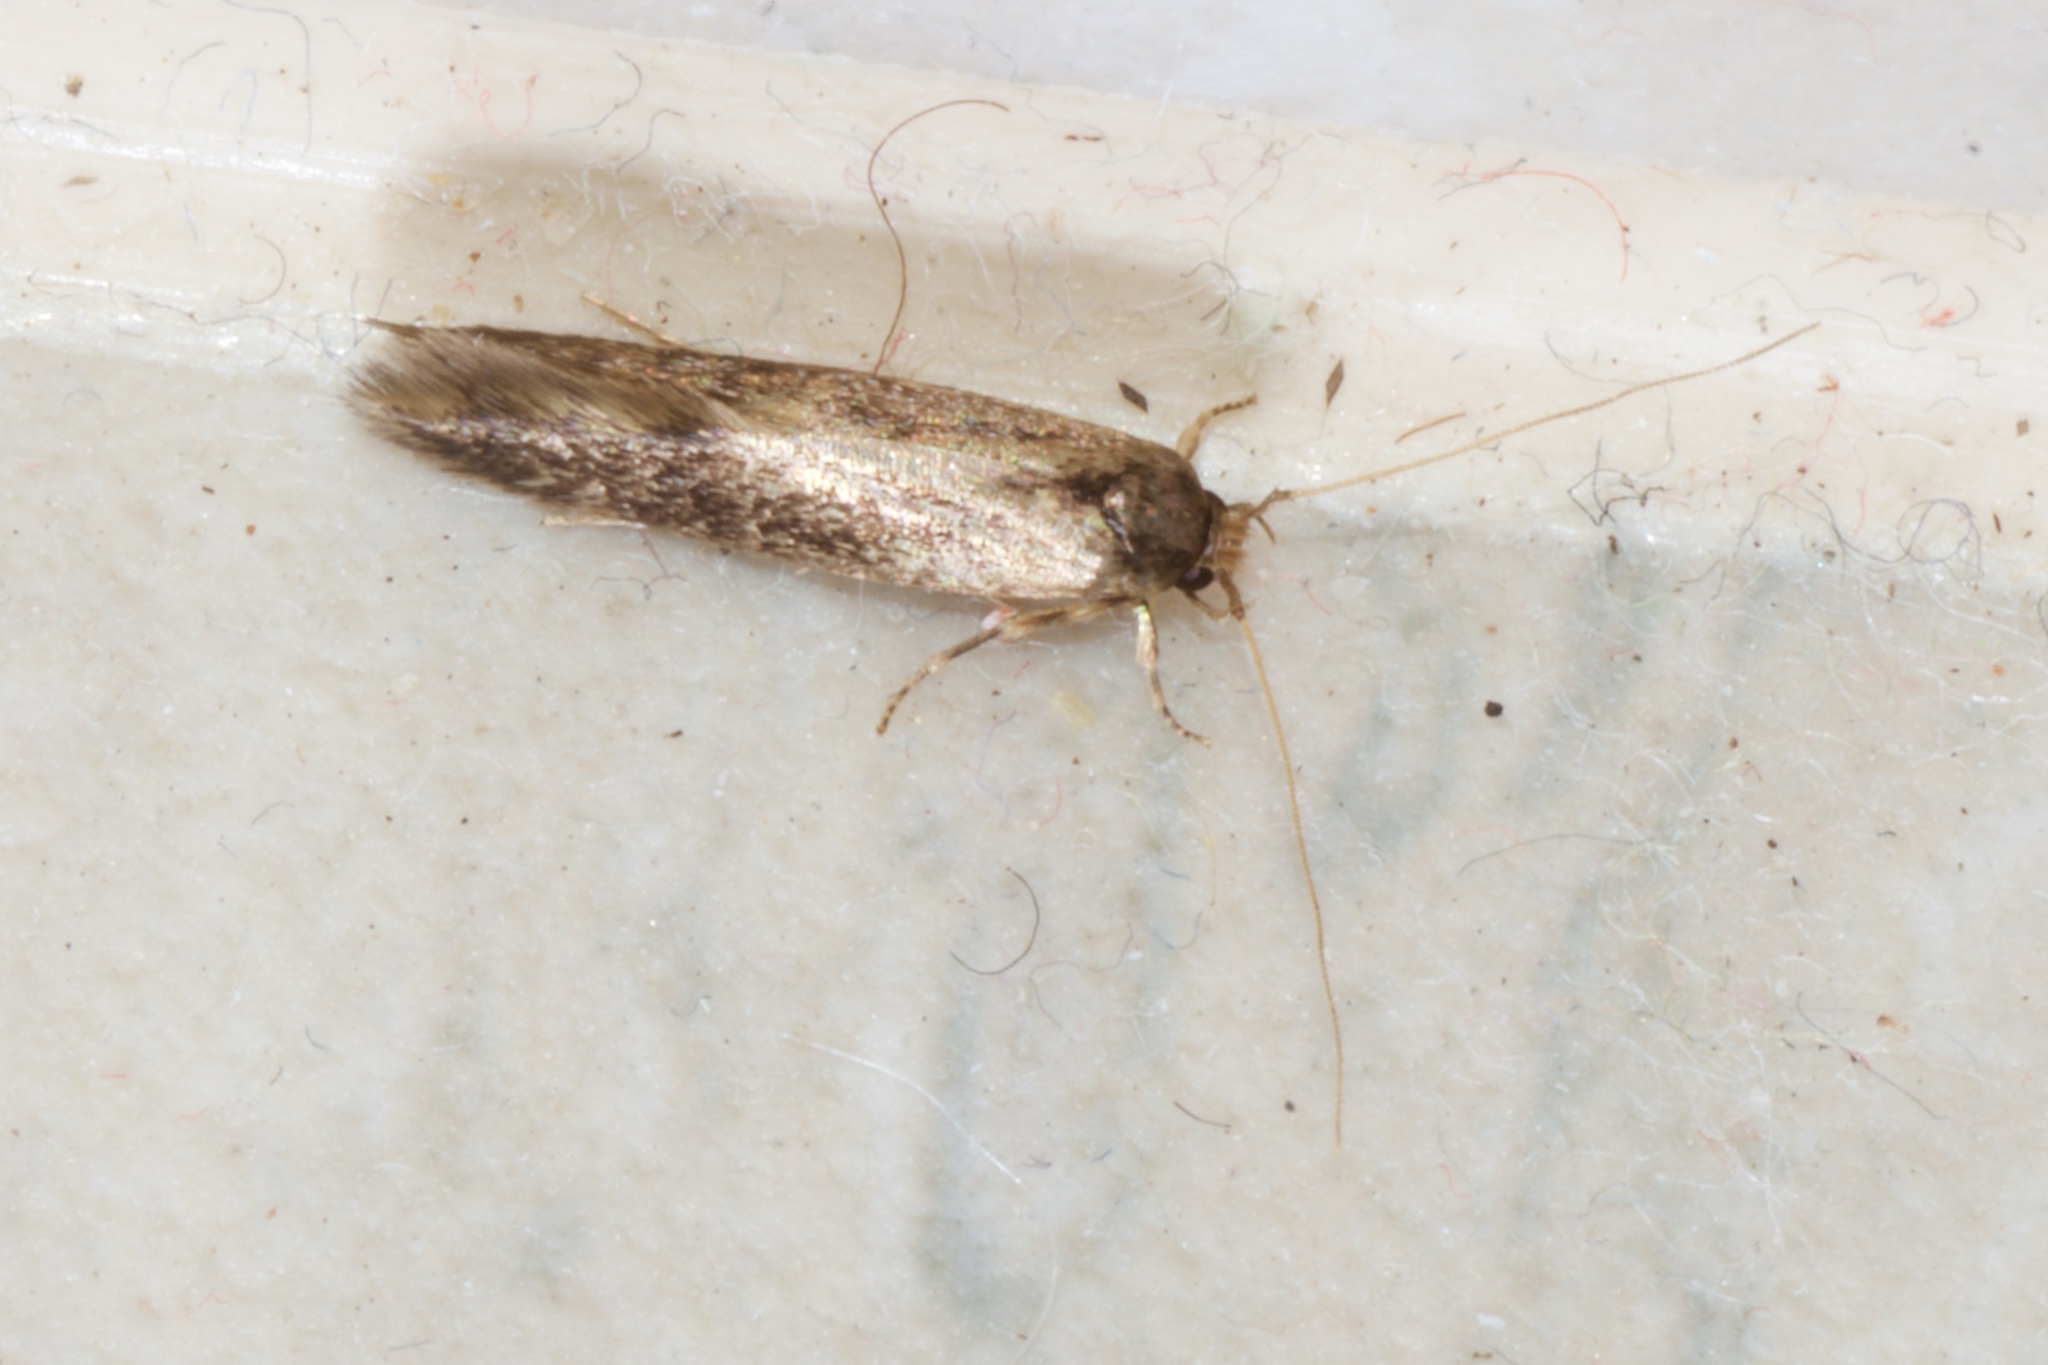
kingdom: Animalia
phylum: Arthropoda
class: Insecta
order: Lepidoptera
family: Tineidae
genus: Opogona
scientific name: Opogona omoscopa
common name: Moth
